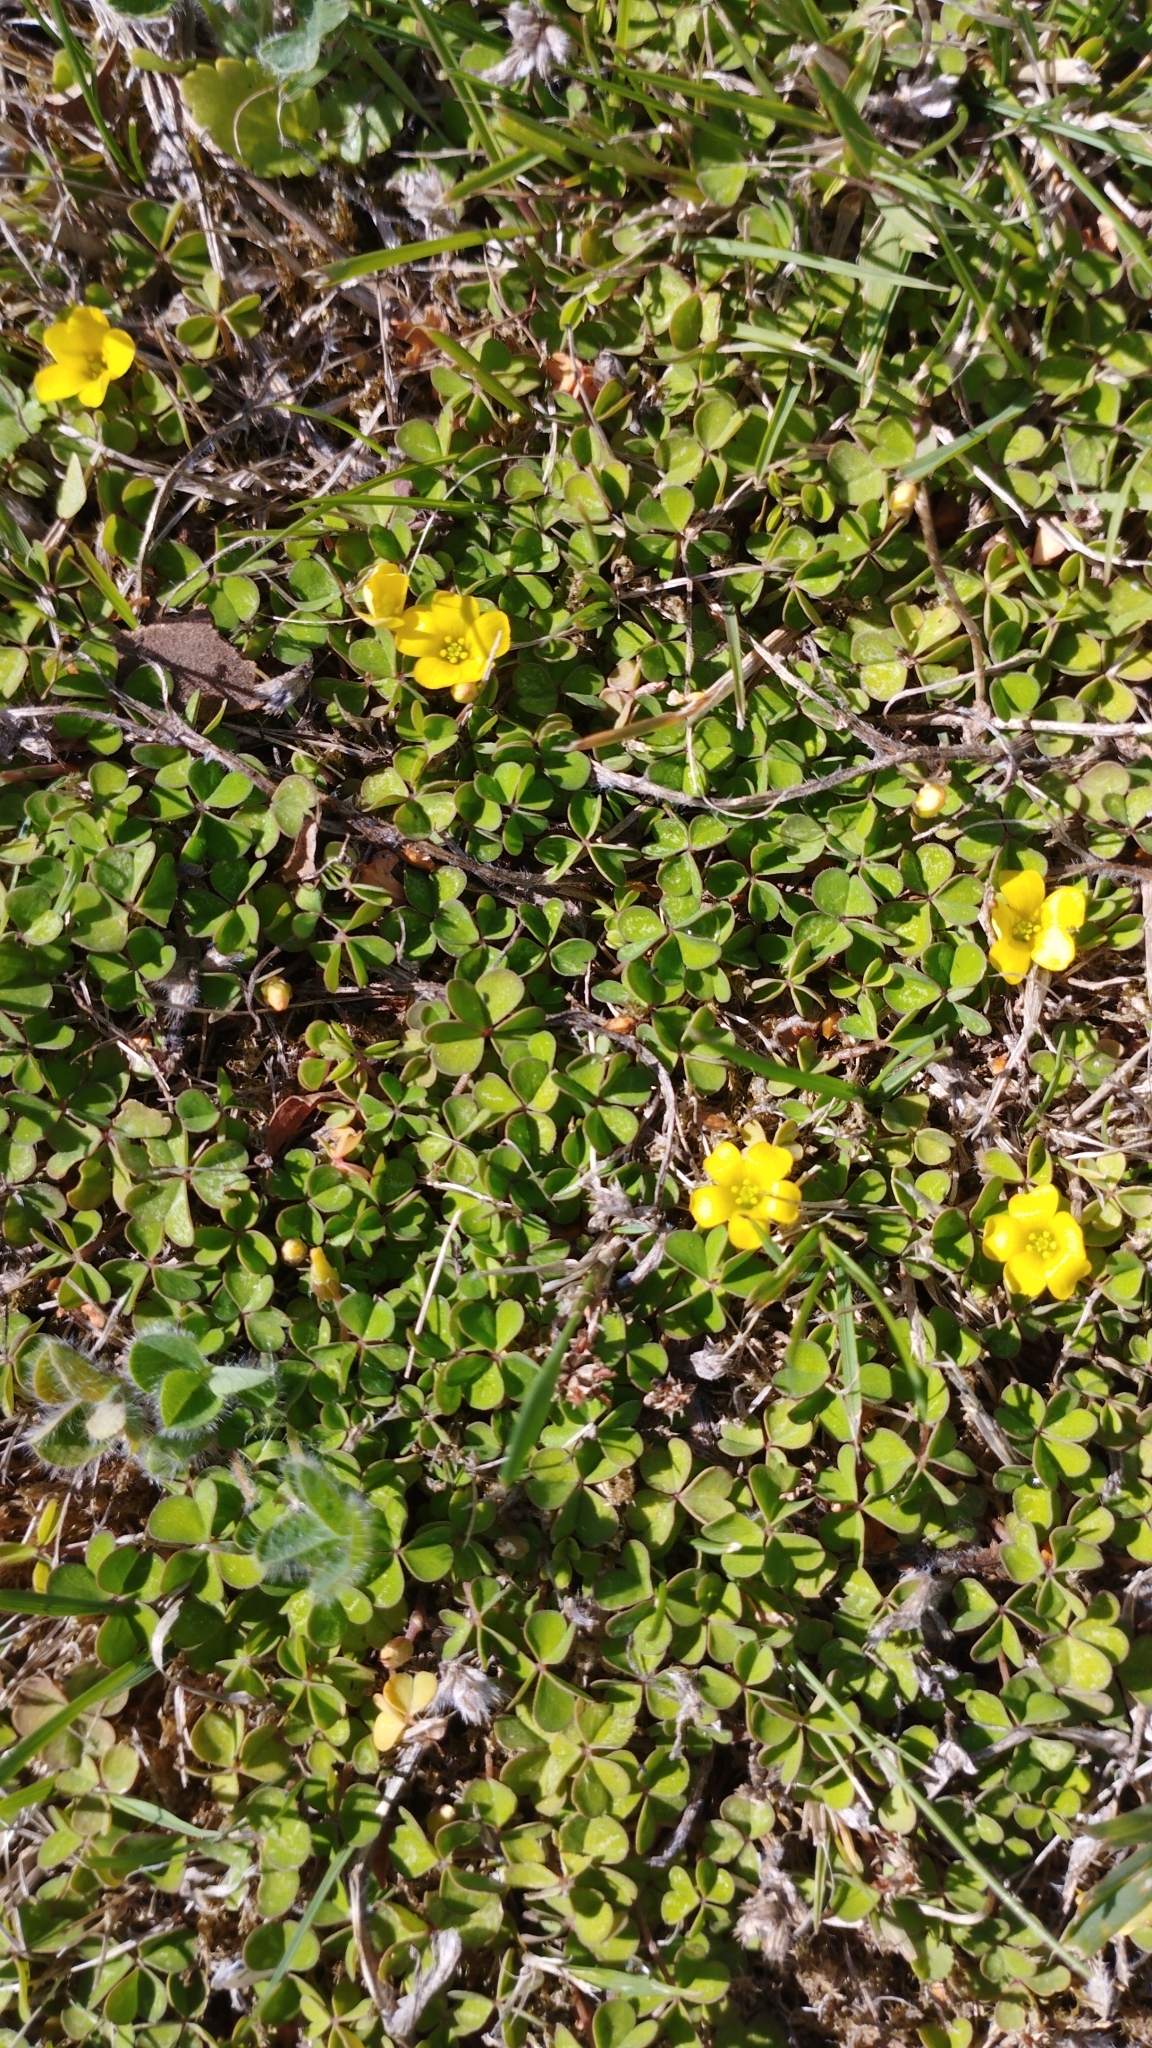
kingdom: Plantae
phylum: Tracheophyta
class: Magnoliopsida
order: Oxalidales
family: Oxalidaceae
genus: Oxalis
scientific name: Oxalis exilis
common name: Least yellow-sorrel
